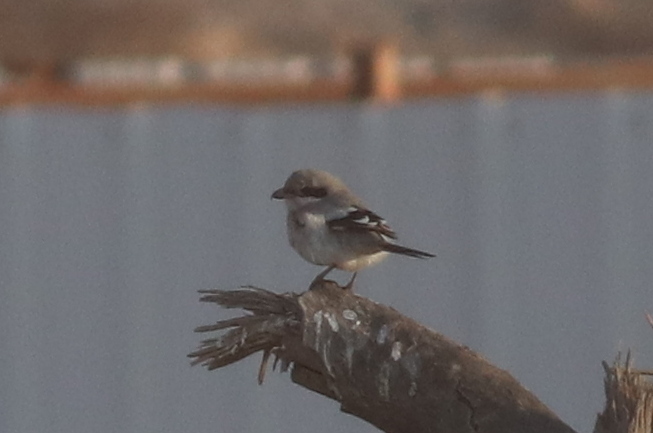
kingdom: Animalia
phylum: Chordata
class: Aves
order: Passeriformes
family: Laniidae
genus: Lanius
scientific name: Lanius excubitor
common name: Great grey shrike
